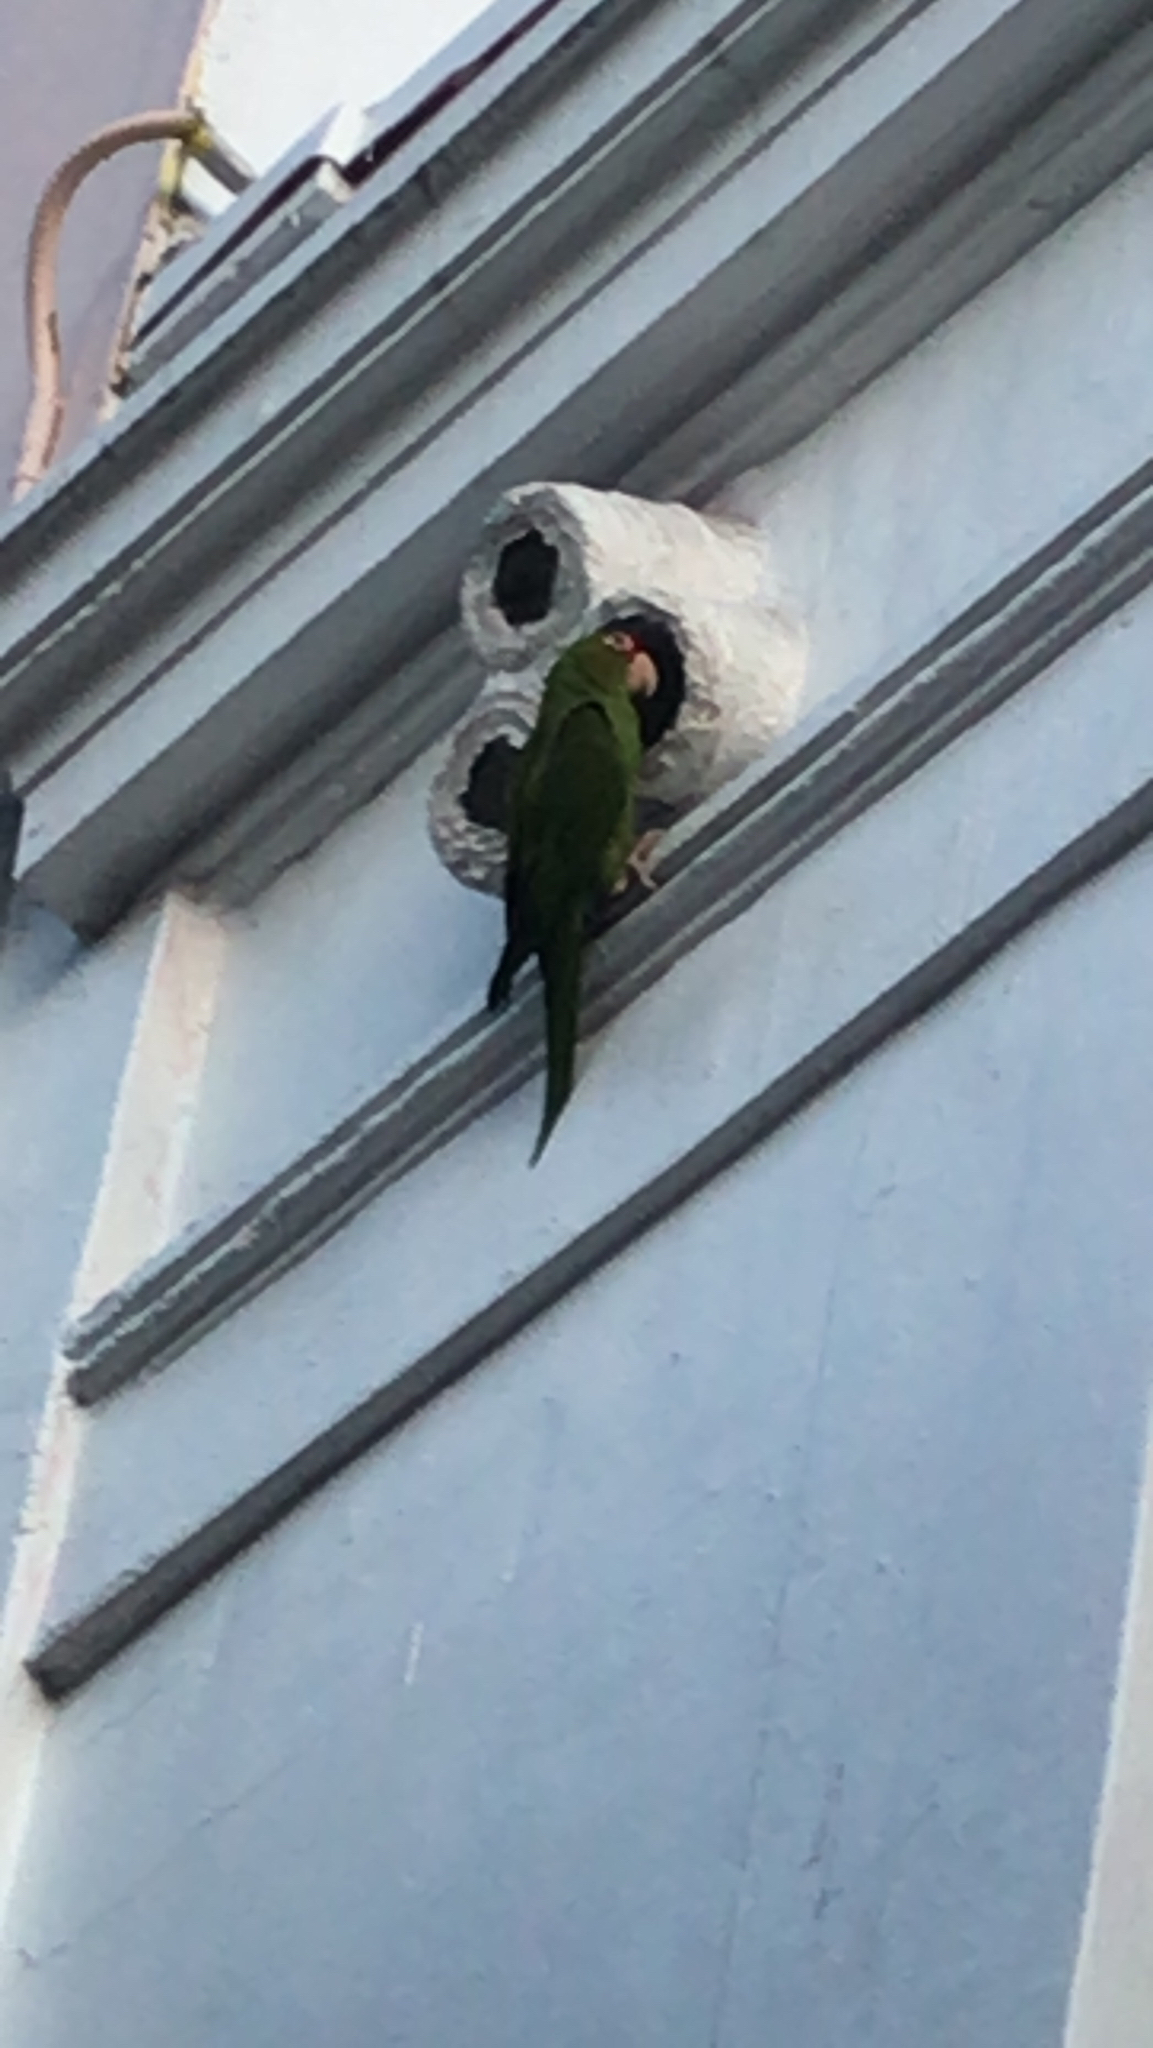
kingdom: Animalia
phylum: Chordata
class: Aves
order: Psittaciformes
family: Psittacidae
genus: Aratinga
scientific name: Aratinga mitrata
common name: Mitred parakeet
